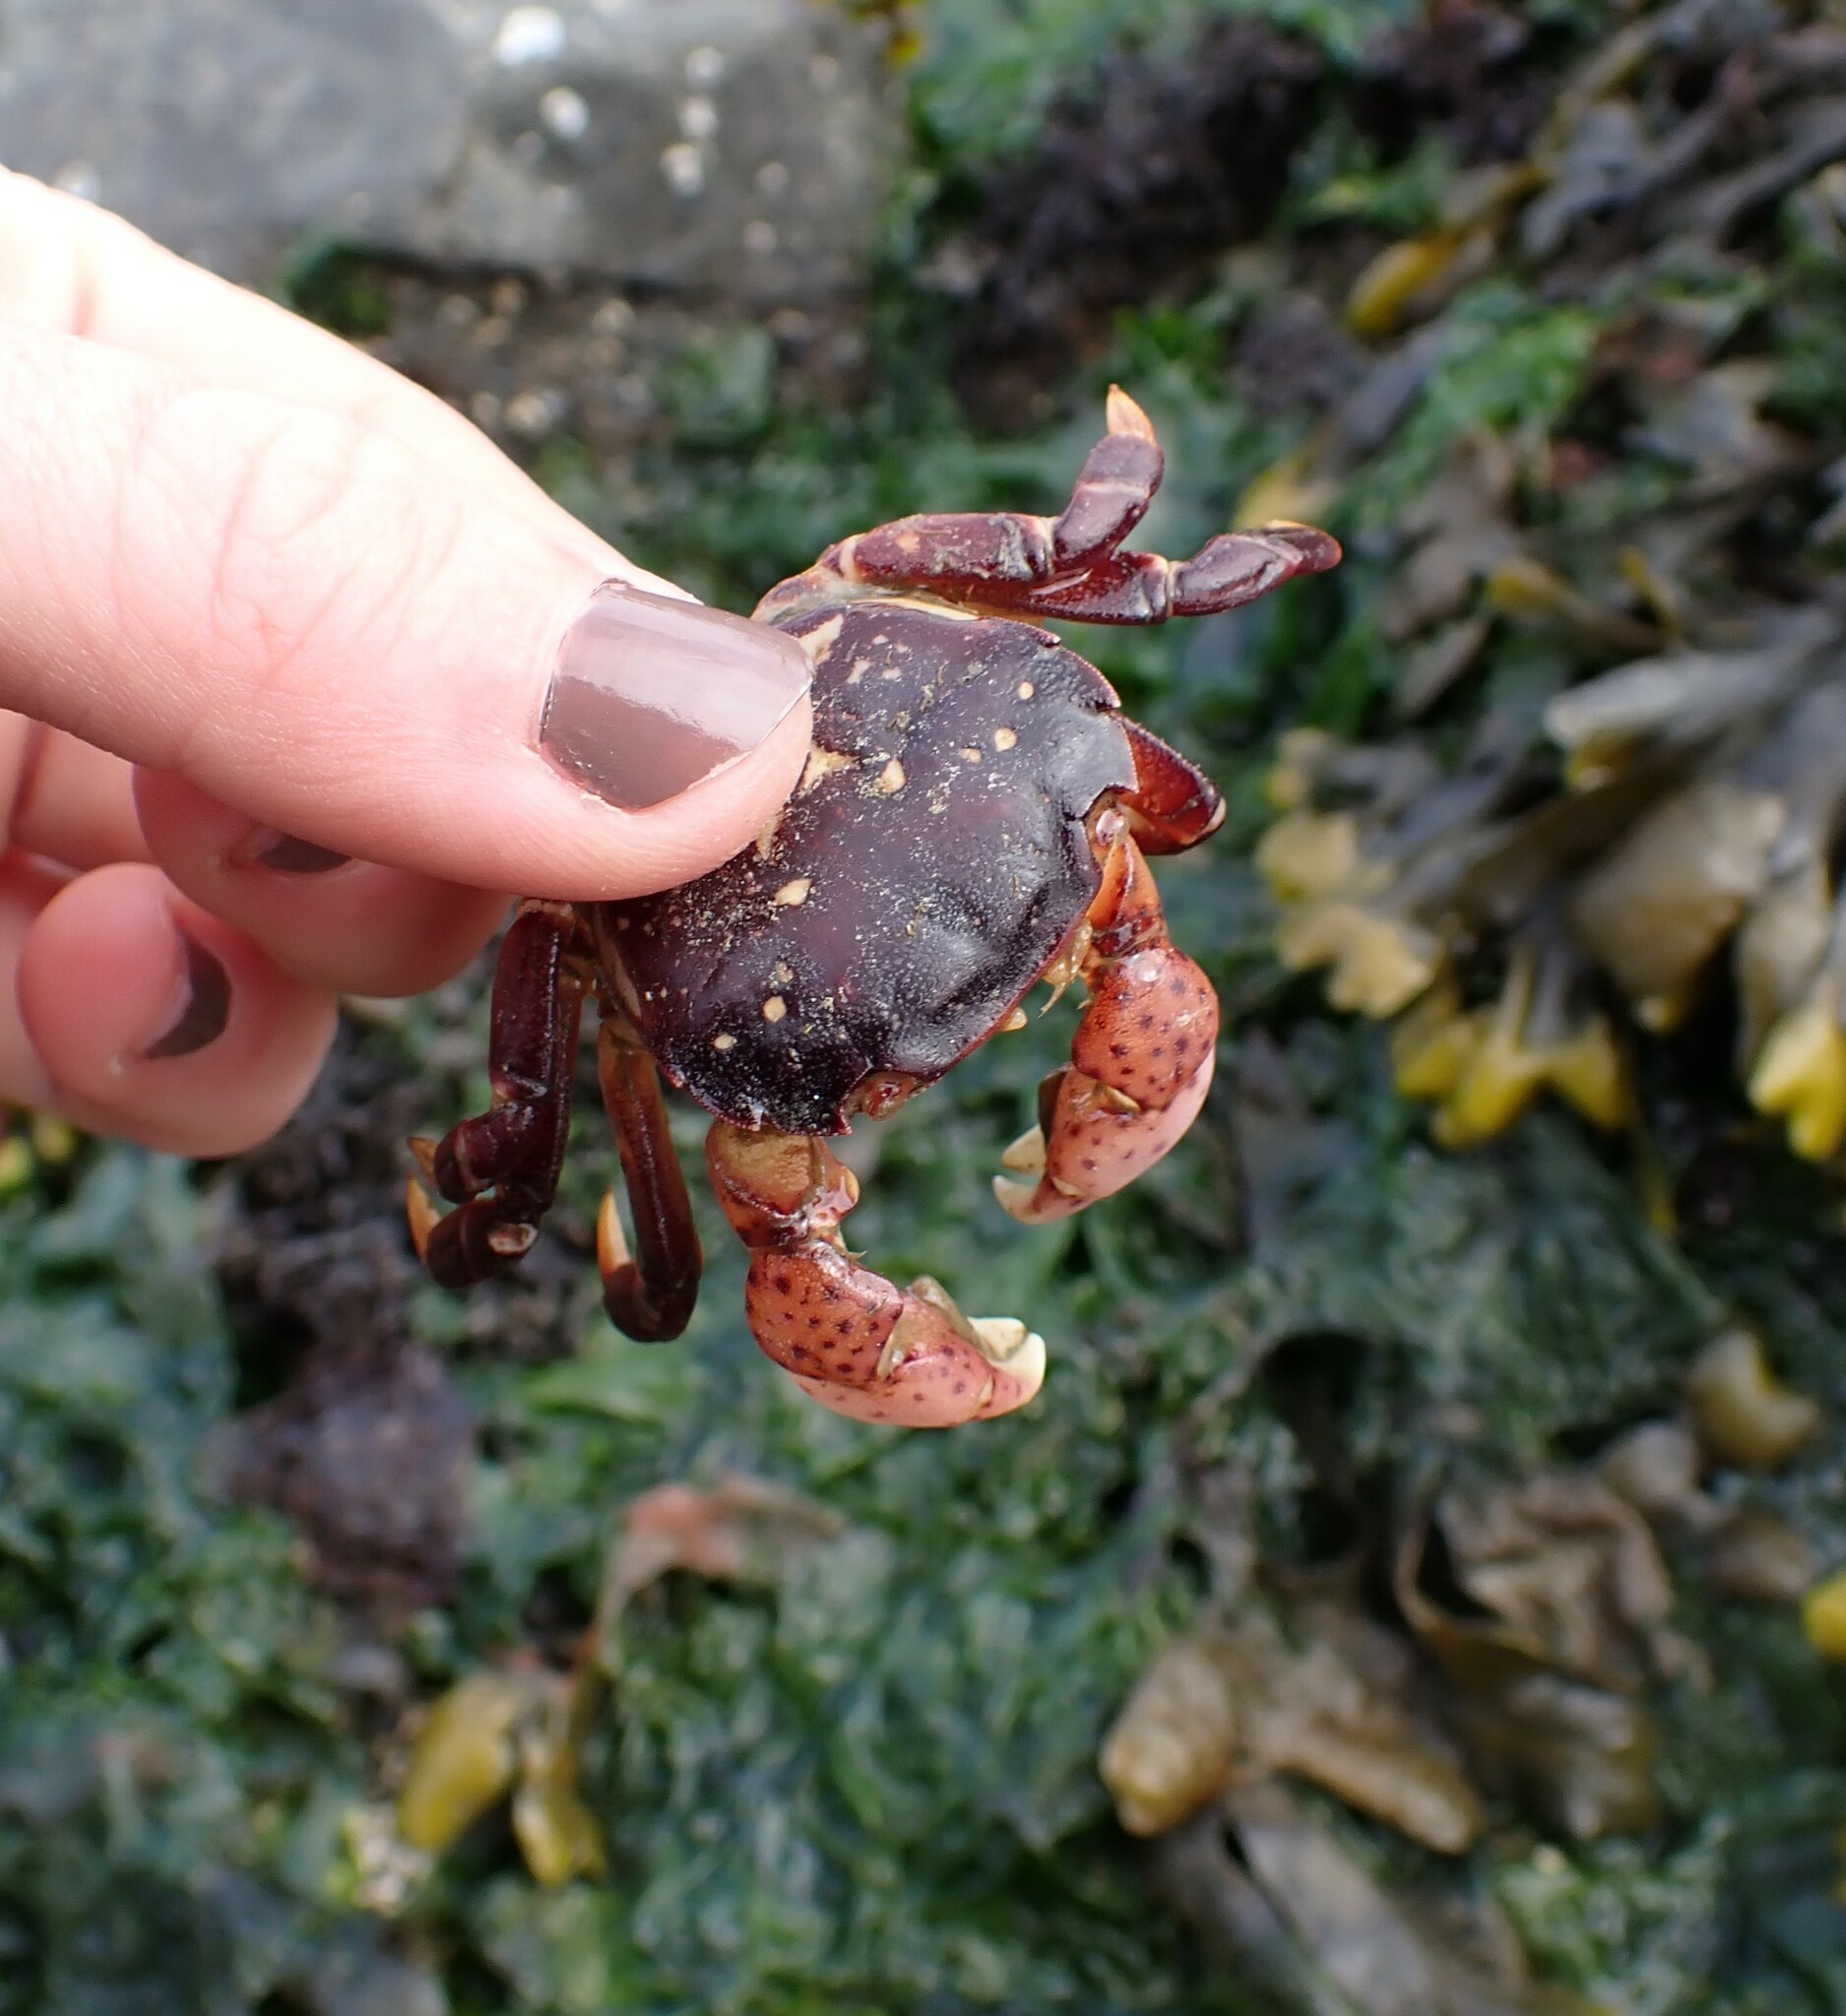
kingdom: Animalia
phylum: Arthropoda
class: Malacostraca
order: Decapoda
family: Varunidae
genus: Hemigrapsus
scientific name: Hemigrapsus nudus
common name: Purple shore crab
